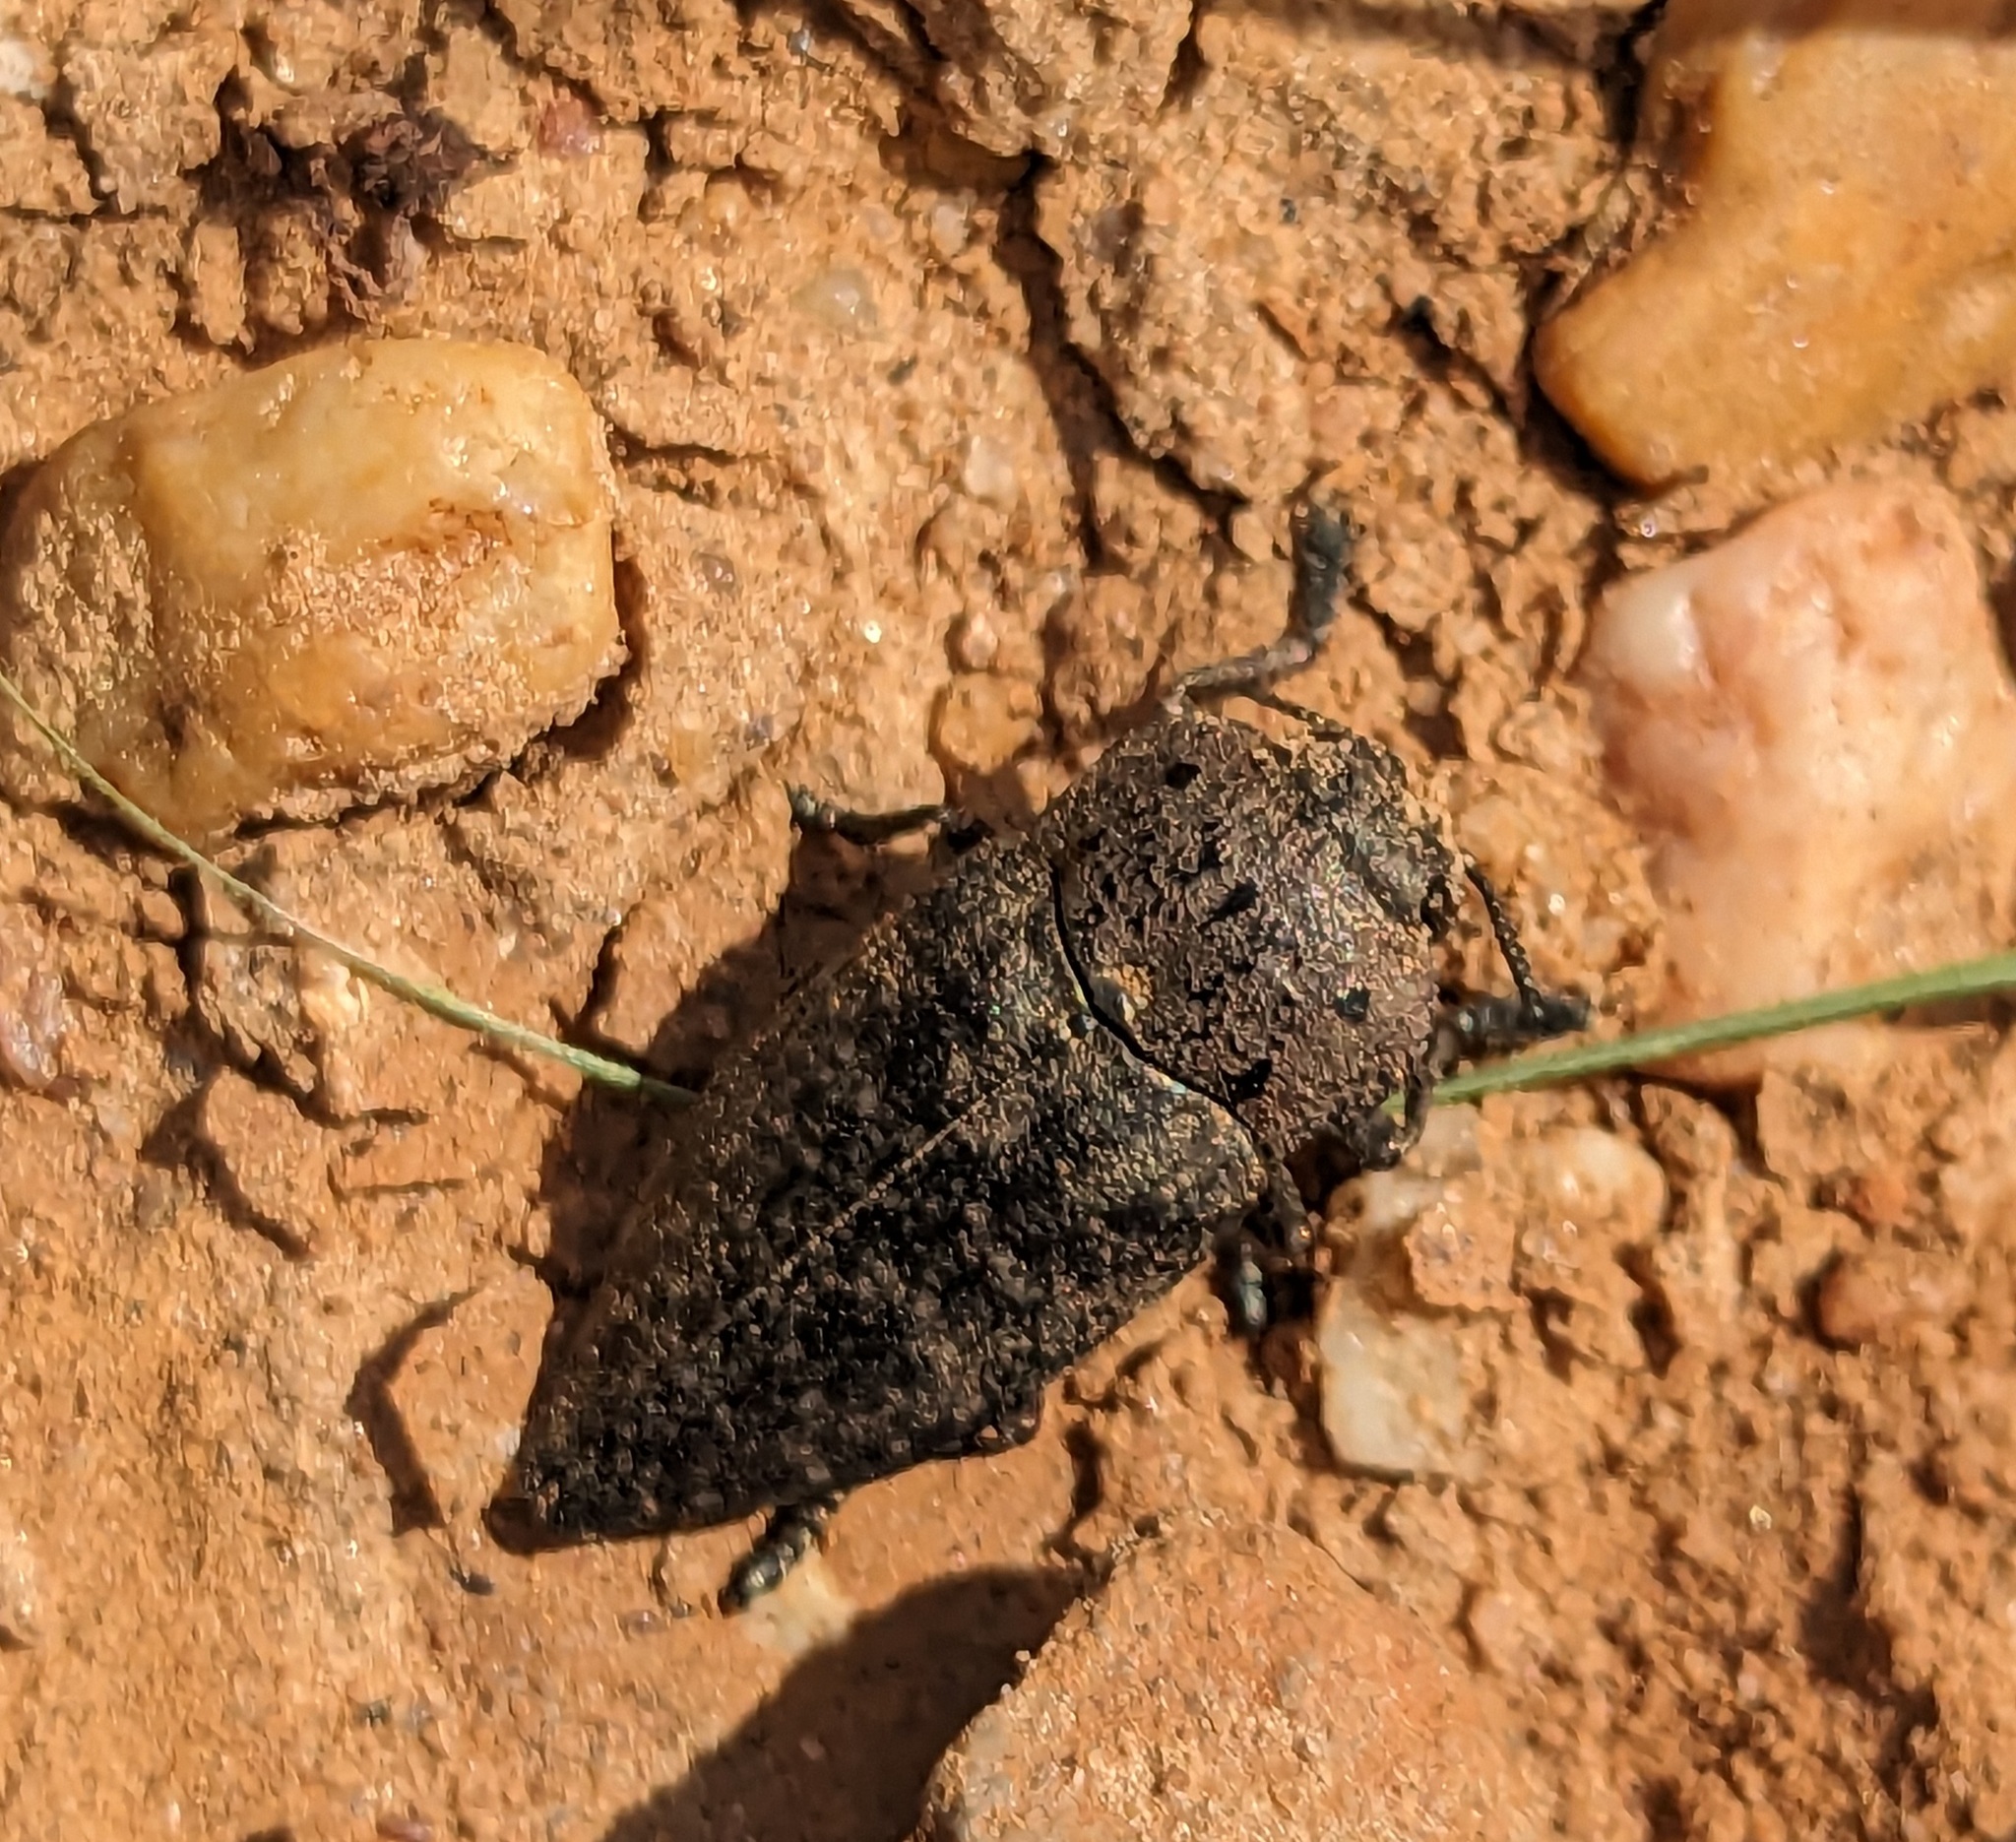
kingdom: Animalia
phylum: Arthropoda
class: Insecta
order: Coleoptera
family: Buprestidae
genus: Capnodis
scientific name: Capnodis tenebricosa
